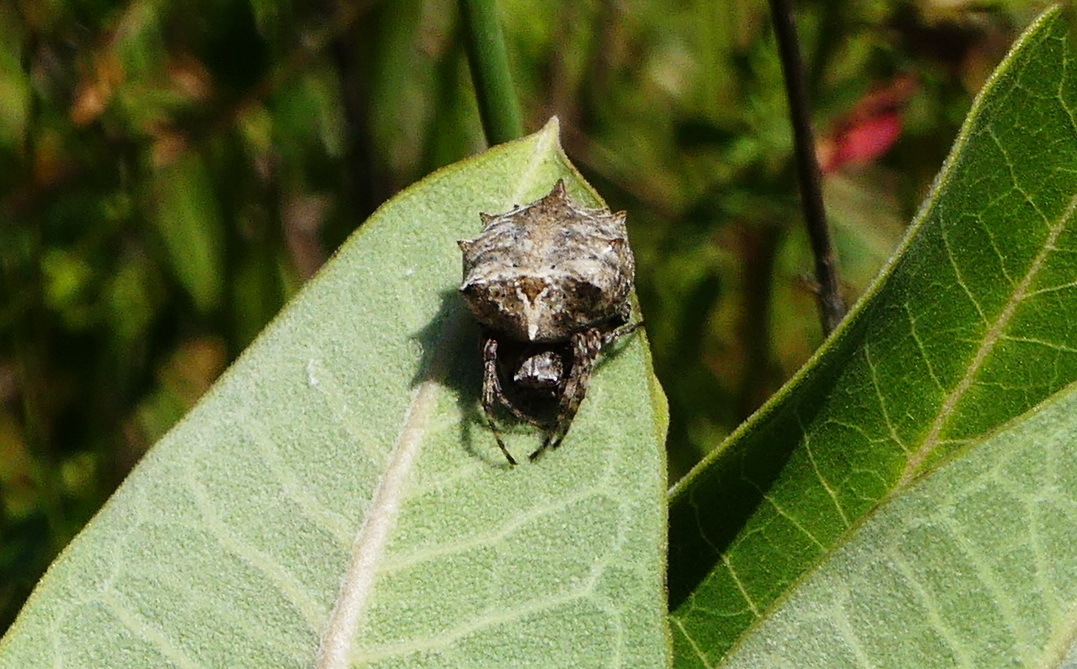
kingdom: Animalia
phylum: Arthropoda
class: Arachnida
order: Araneae
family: Araneidae
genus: Acanthepeira
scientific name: Acanthepeira stellata
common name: Starbellied orbweaver
